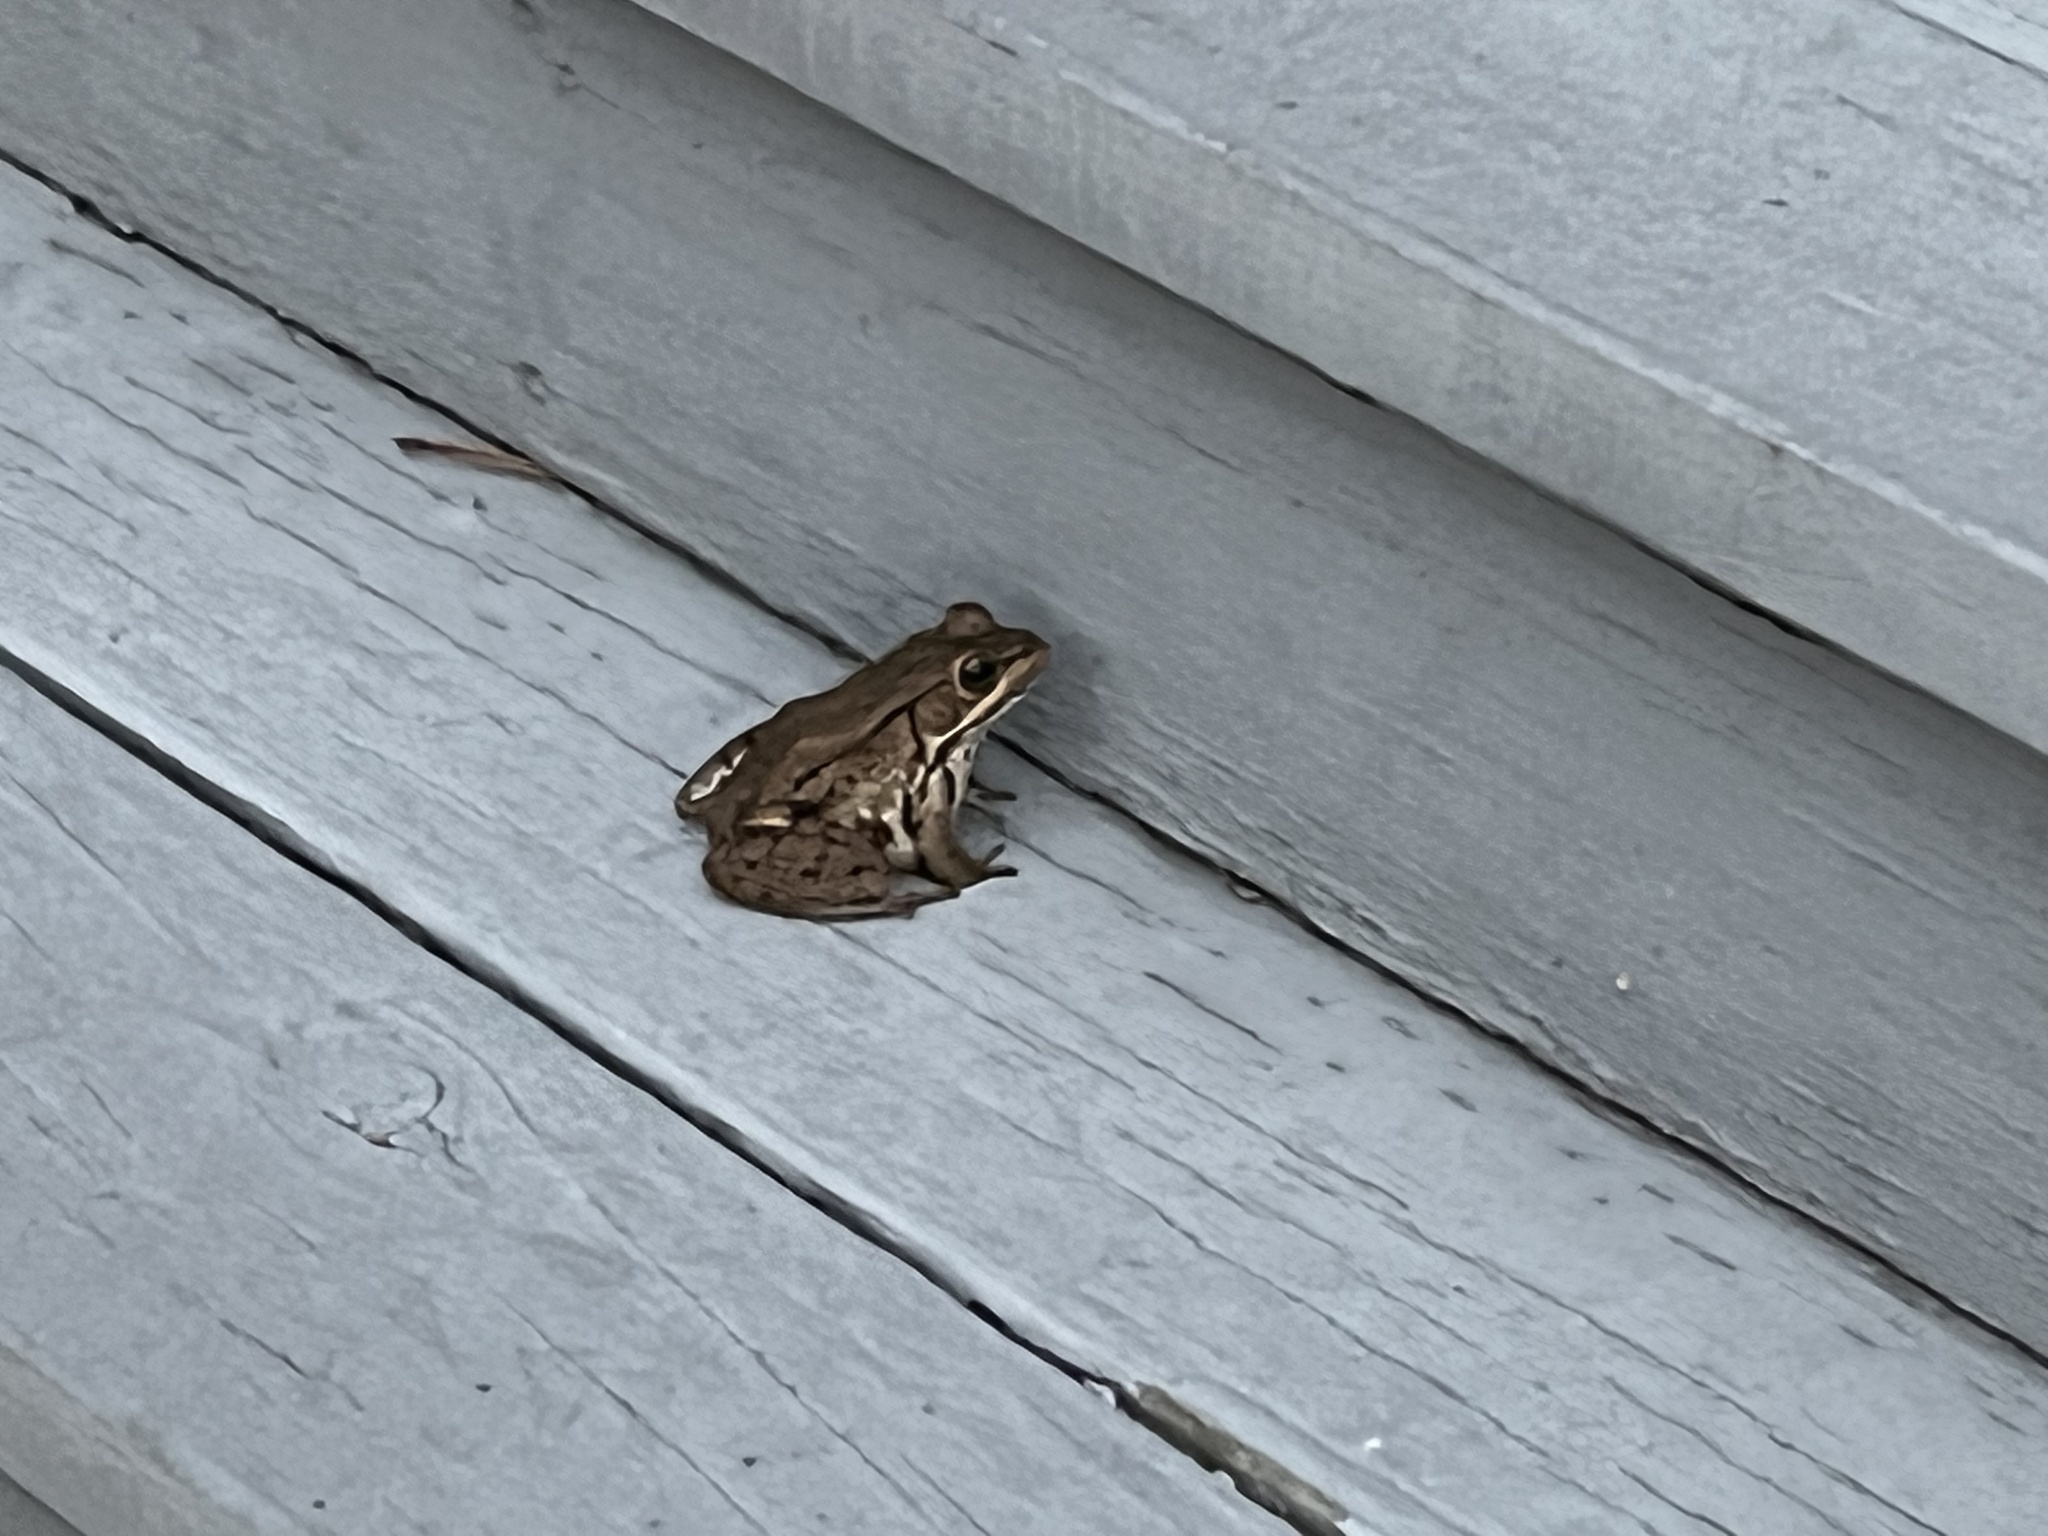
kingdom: Animalia
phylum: Chordata
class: Amphibia
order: Anura
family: Ranidae
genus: Lithobates
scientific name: Lithobates clamitans
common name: Green frog
